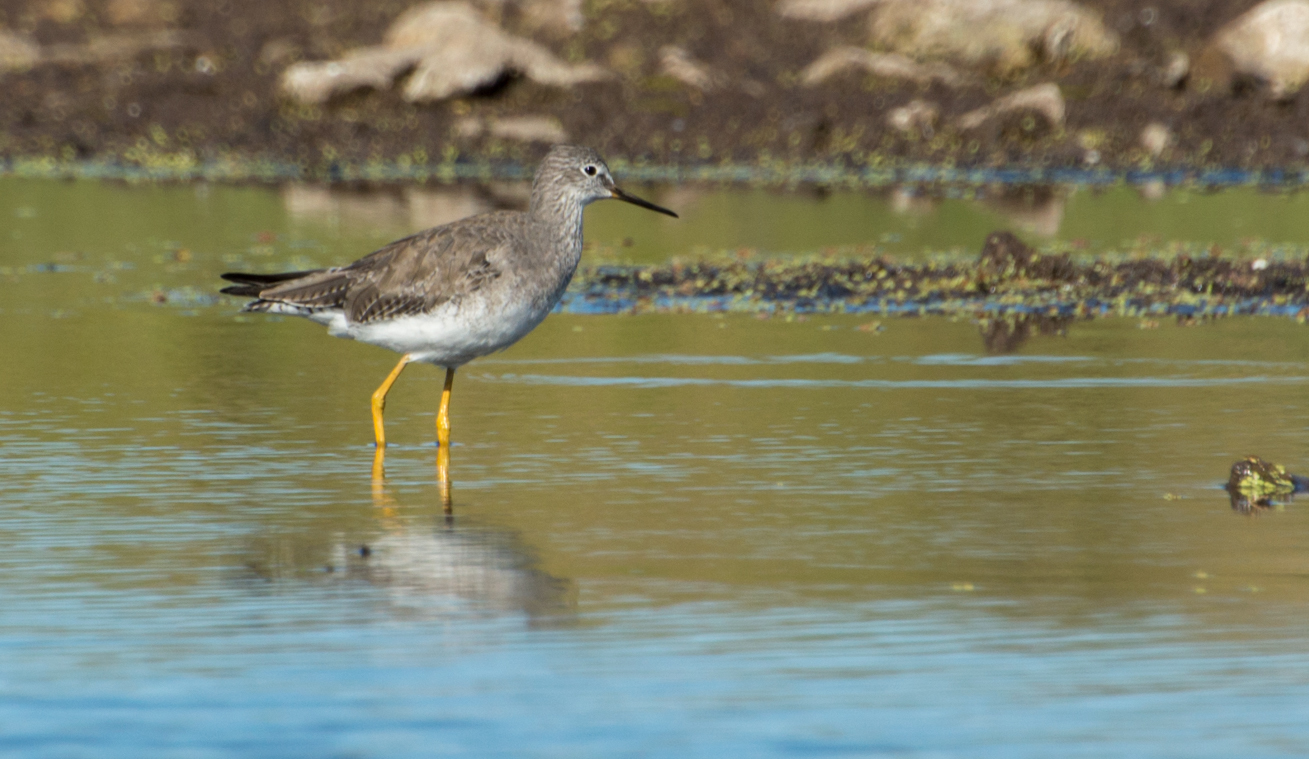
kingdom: Animalia
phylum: Chordata
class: Aves
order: Charadriiformes
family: Scolopacidae
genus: Tringa
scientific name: Tringa flavipes
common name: Lesser yellowlegs
